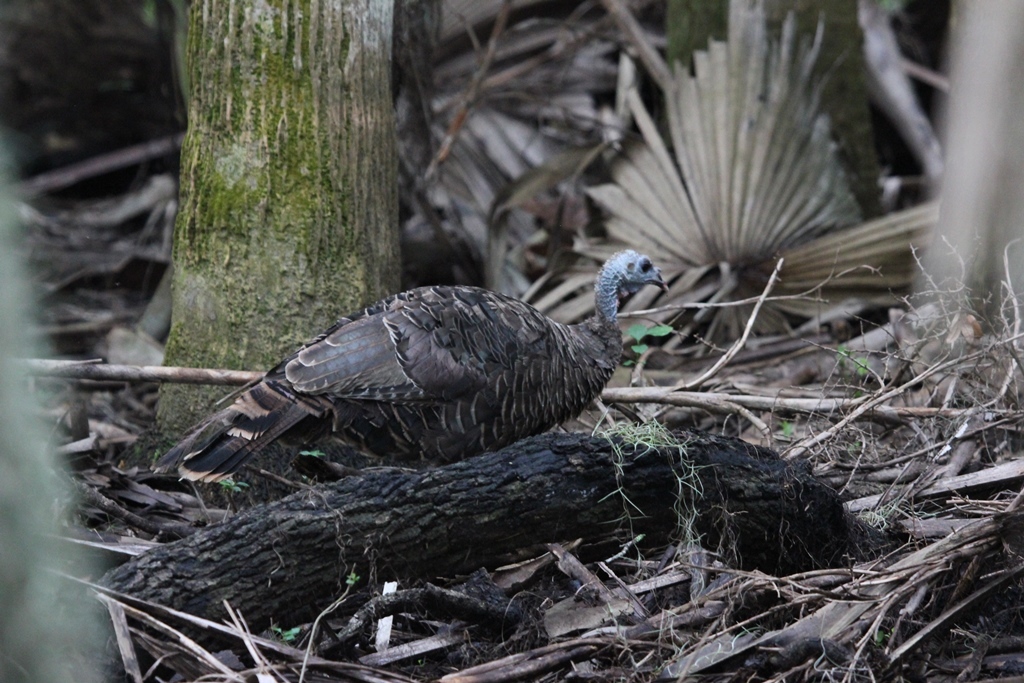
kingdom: Animalia
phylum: Chordata
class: Aves
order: Galliformes
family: Phasianidae
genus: Meleagris
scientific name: Meleagris gallopavo
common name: Wild turkey
